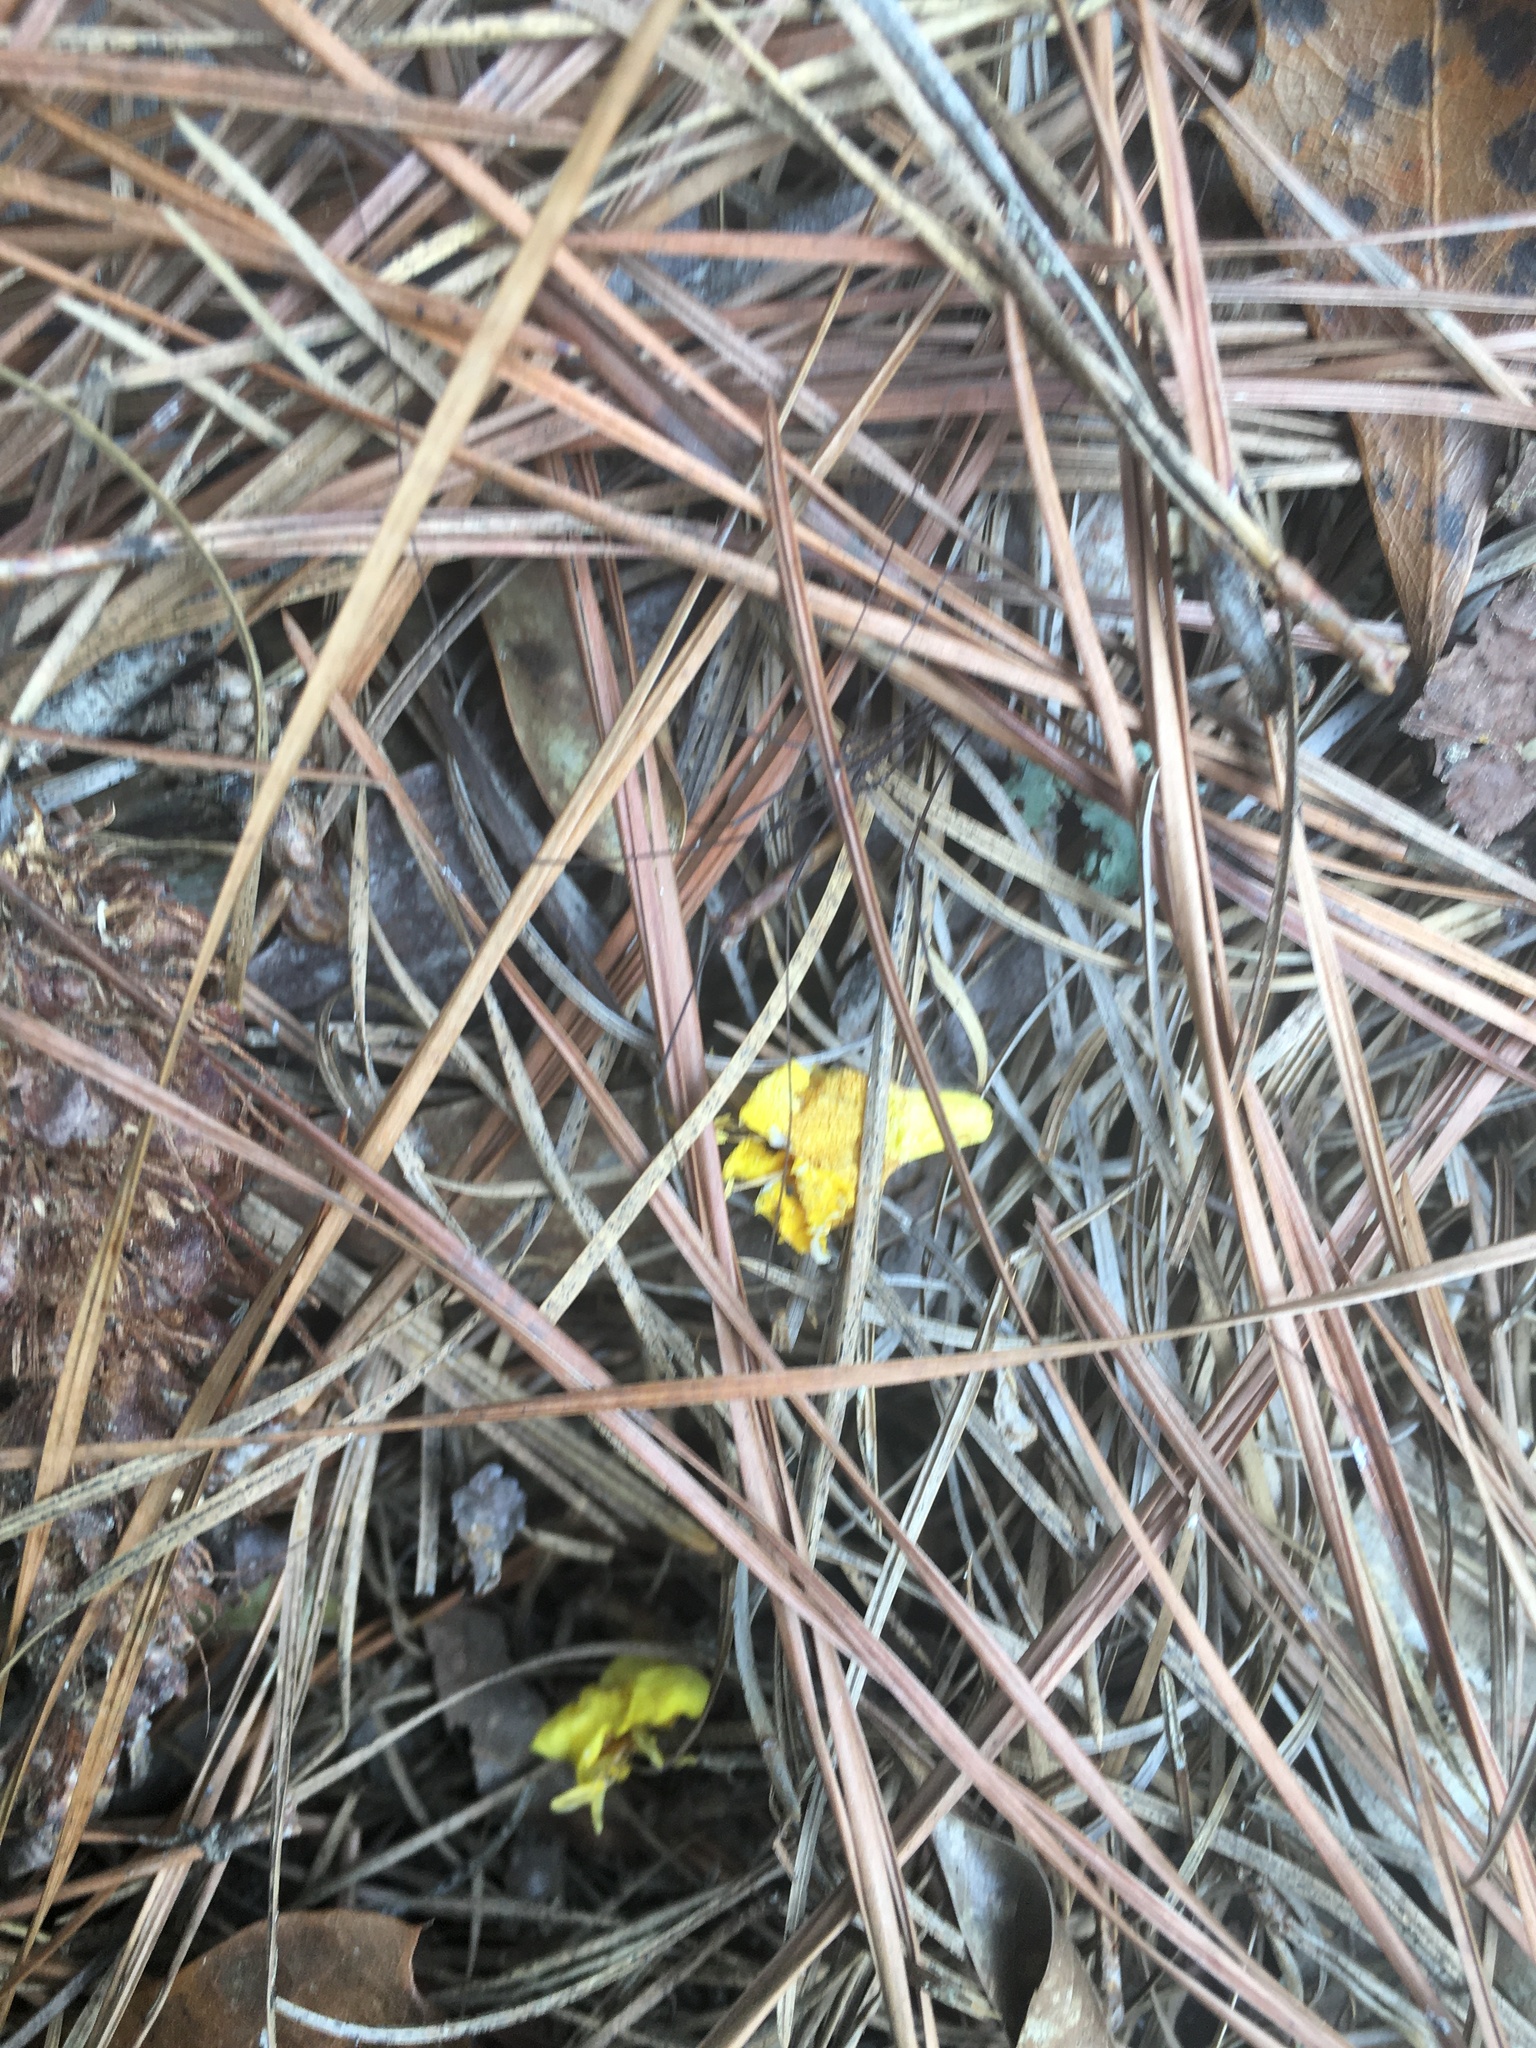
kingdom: Plantae
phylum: Tracheophyta
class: Magnoliopsida
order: Gentianales
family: Gelsemiaceae
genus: Gelsemium
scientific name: Gelsemium sempervirens
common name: Carolina-jasmine
